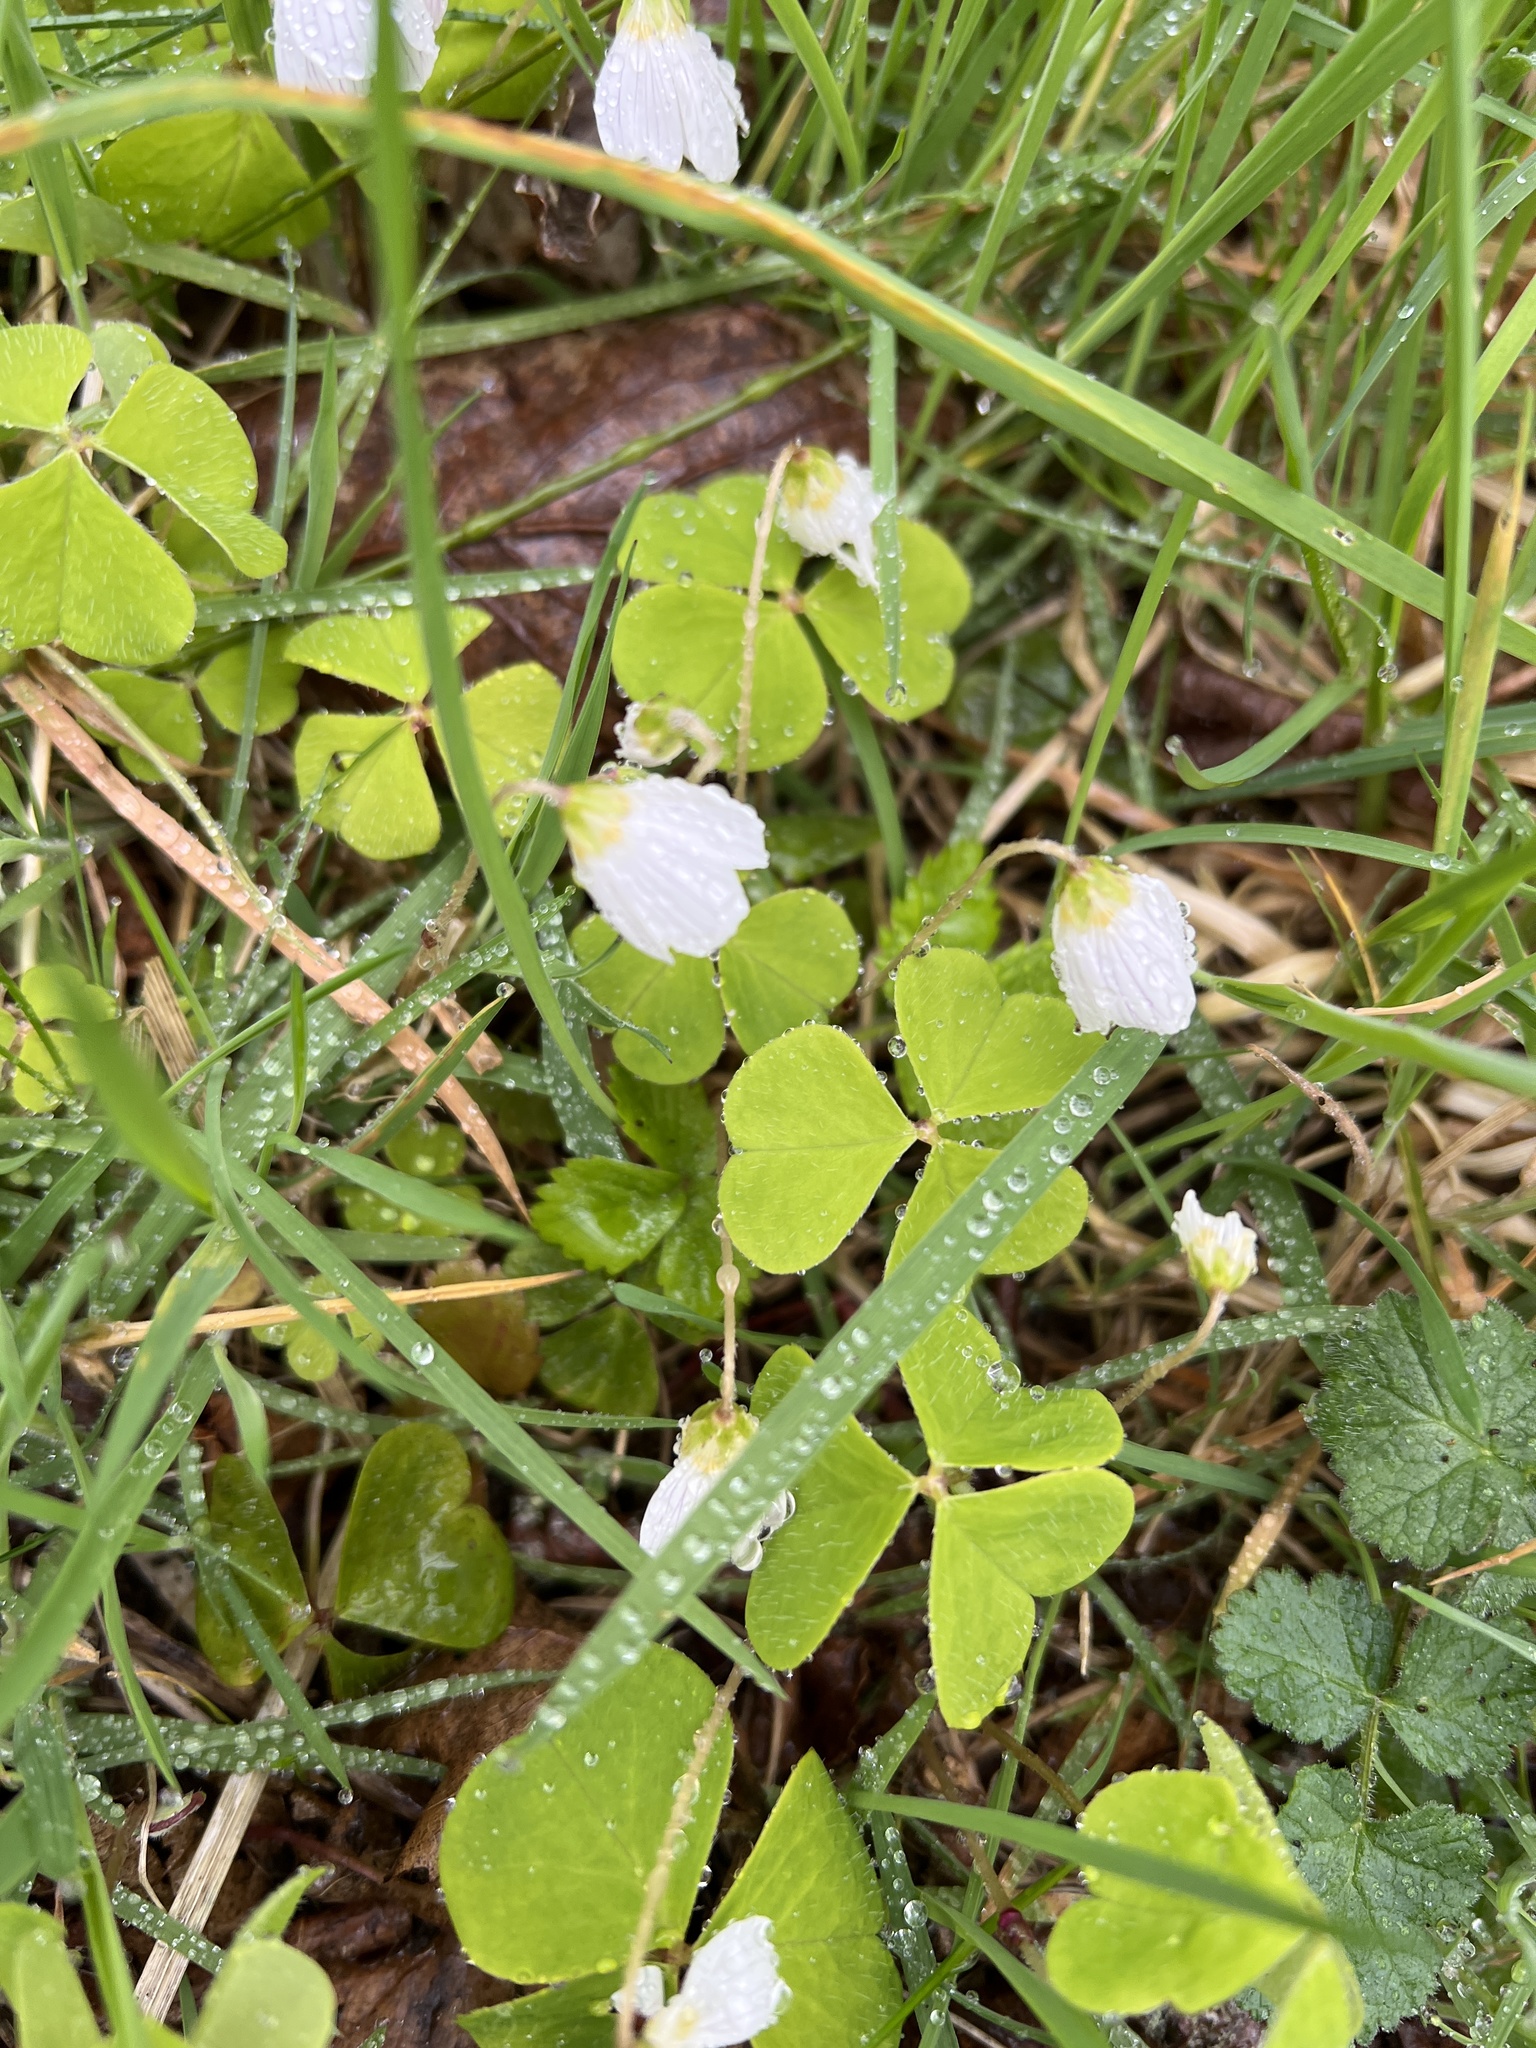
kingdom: Plantae
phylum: Tracheophyta
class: Magnoliopsida
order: Oxalidales
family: Oxalidaceae
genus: Oxalis
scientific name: Oxalis acetosella
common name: Wood-sorrel
